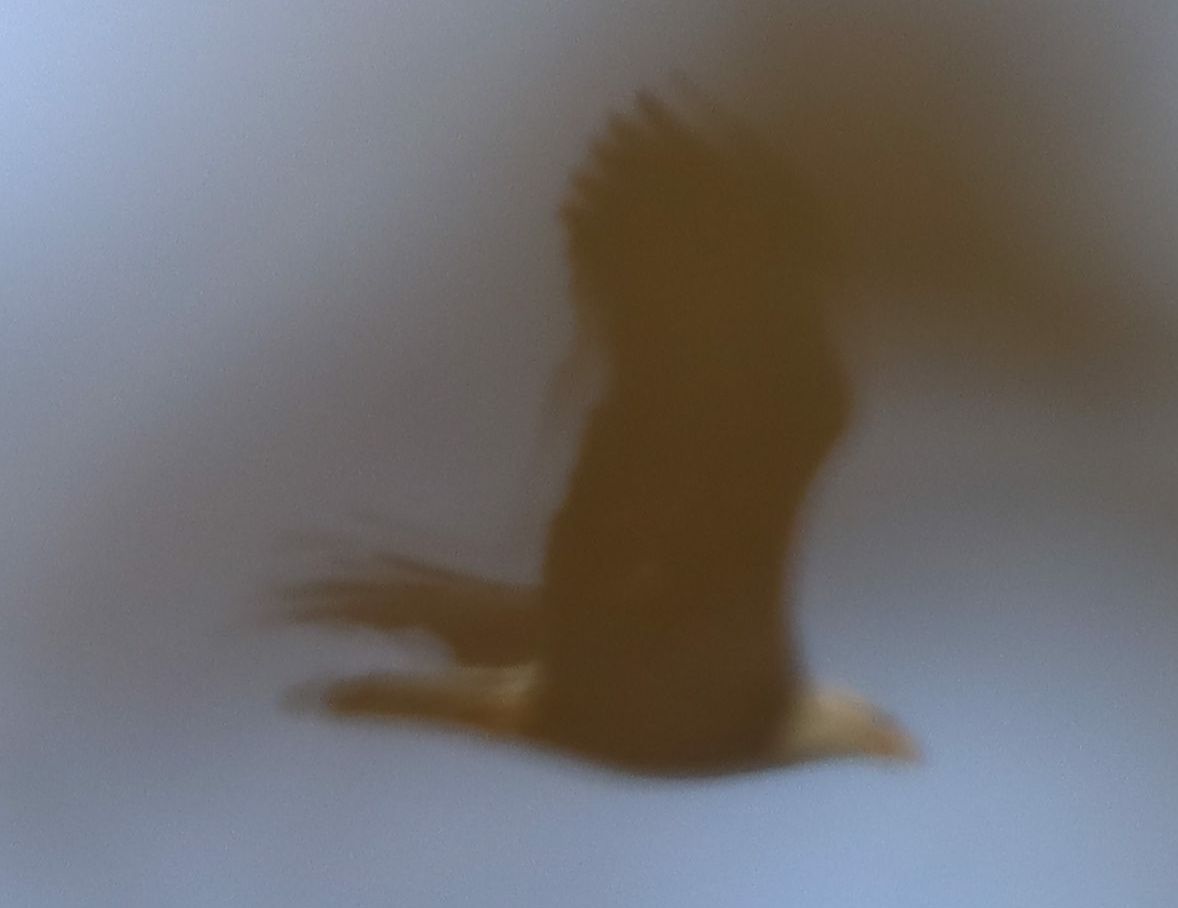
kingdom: Animalia
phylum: Chordata
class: Aves
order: Accipitriformes
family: Accipitridae
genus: Haliaeetus
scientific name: Haliaeetus leucocephalus
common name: Bald eagle
